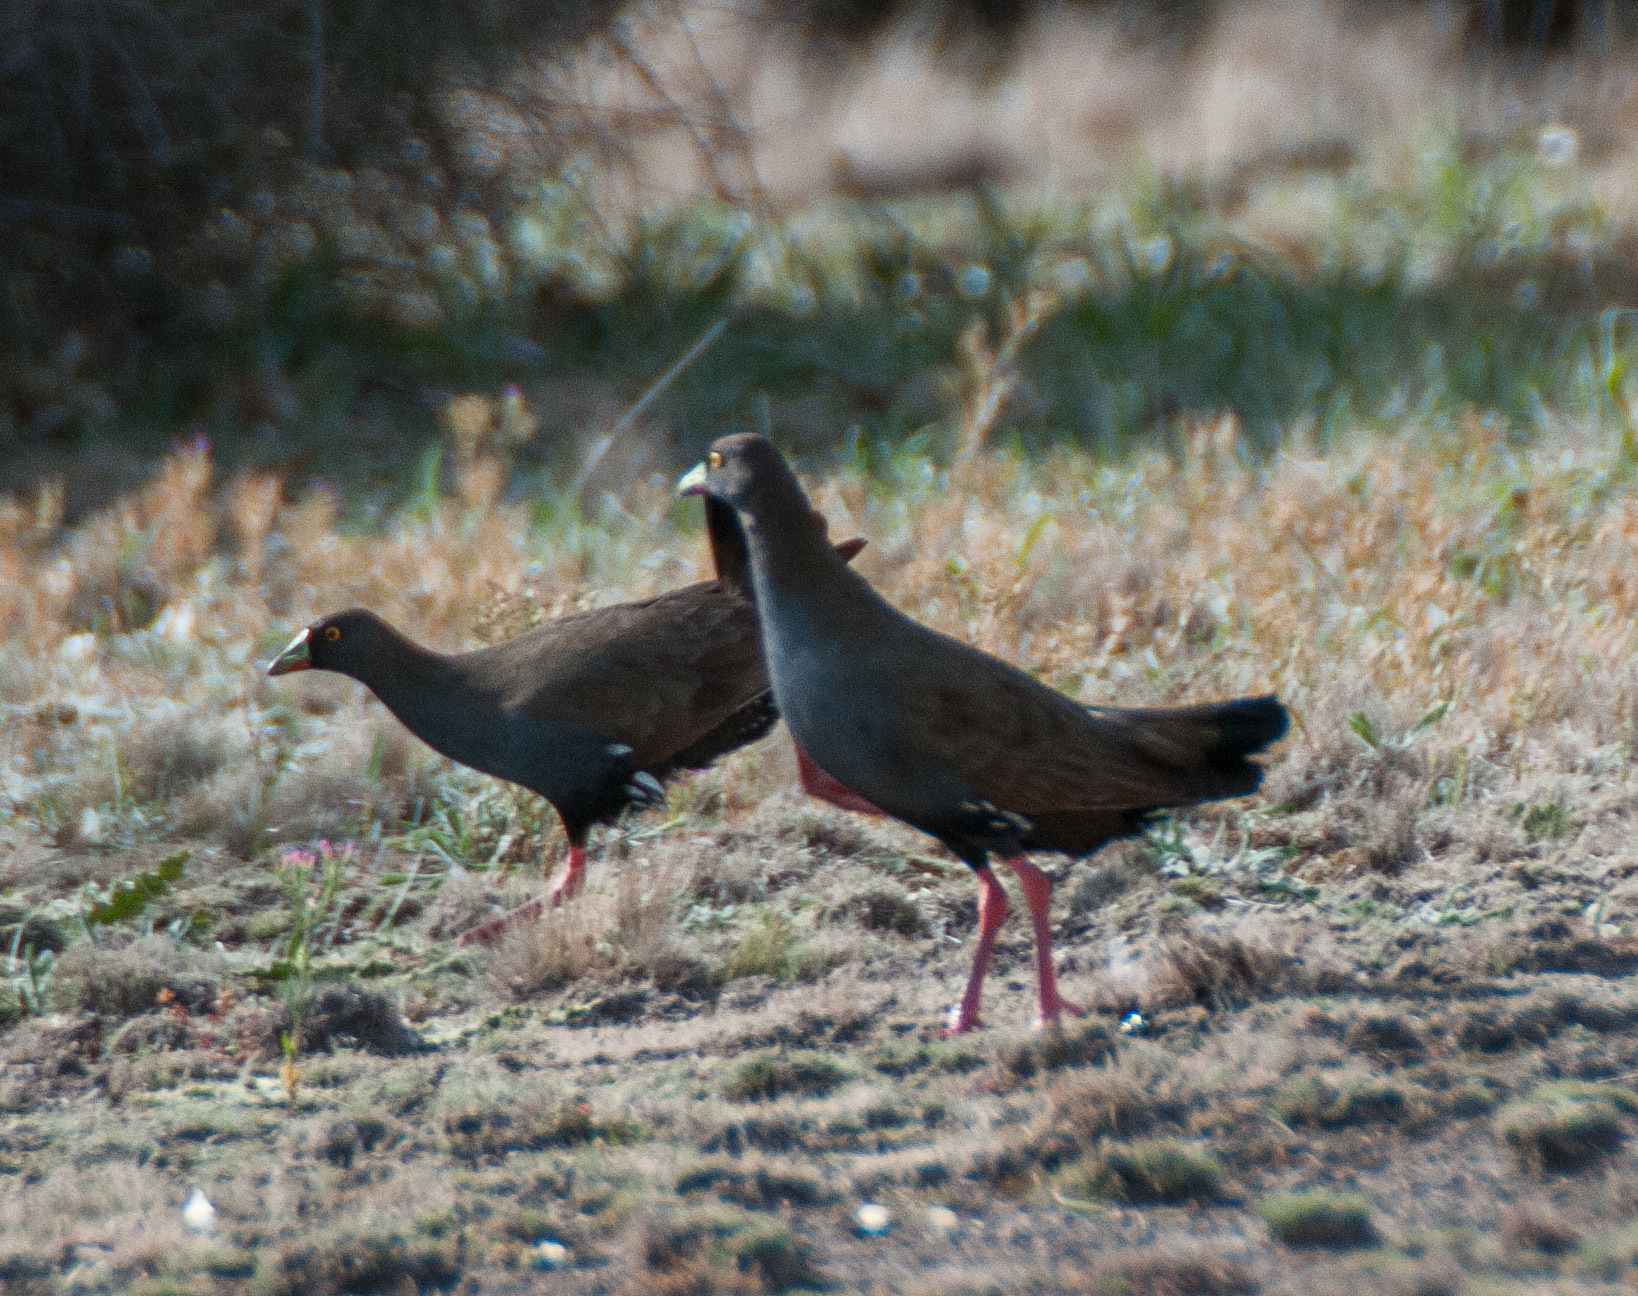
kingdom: Animalia
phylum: Chordata
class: Aves
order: Gruiformes
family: Rallidae
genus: Gallinula
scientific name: Gallinula ventralis
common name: Black-tailed nativehen
